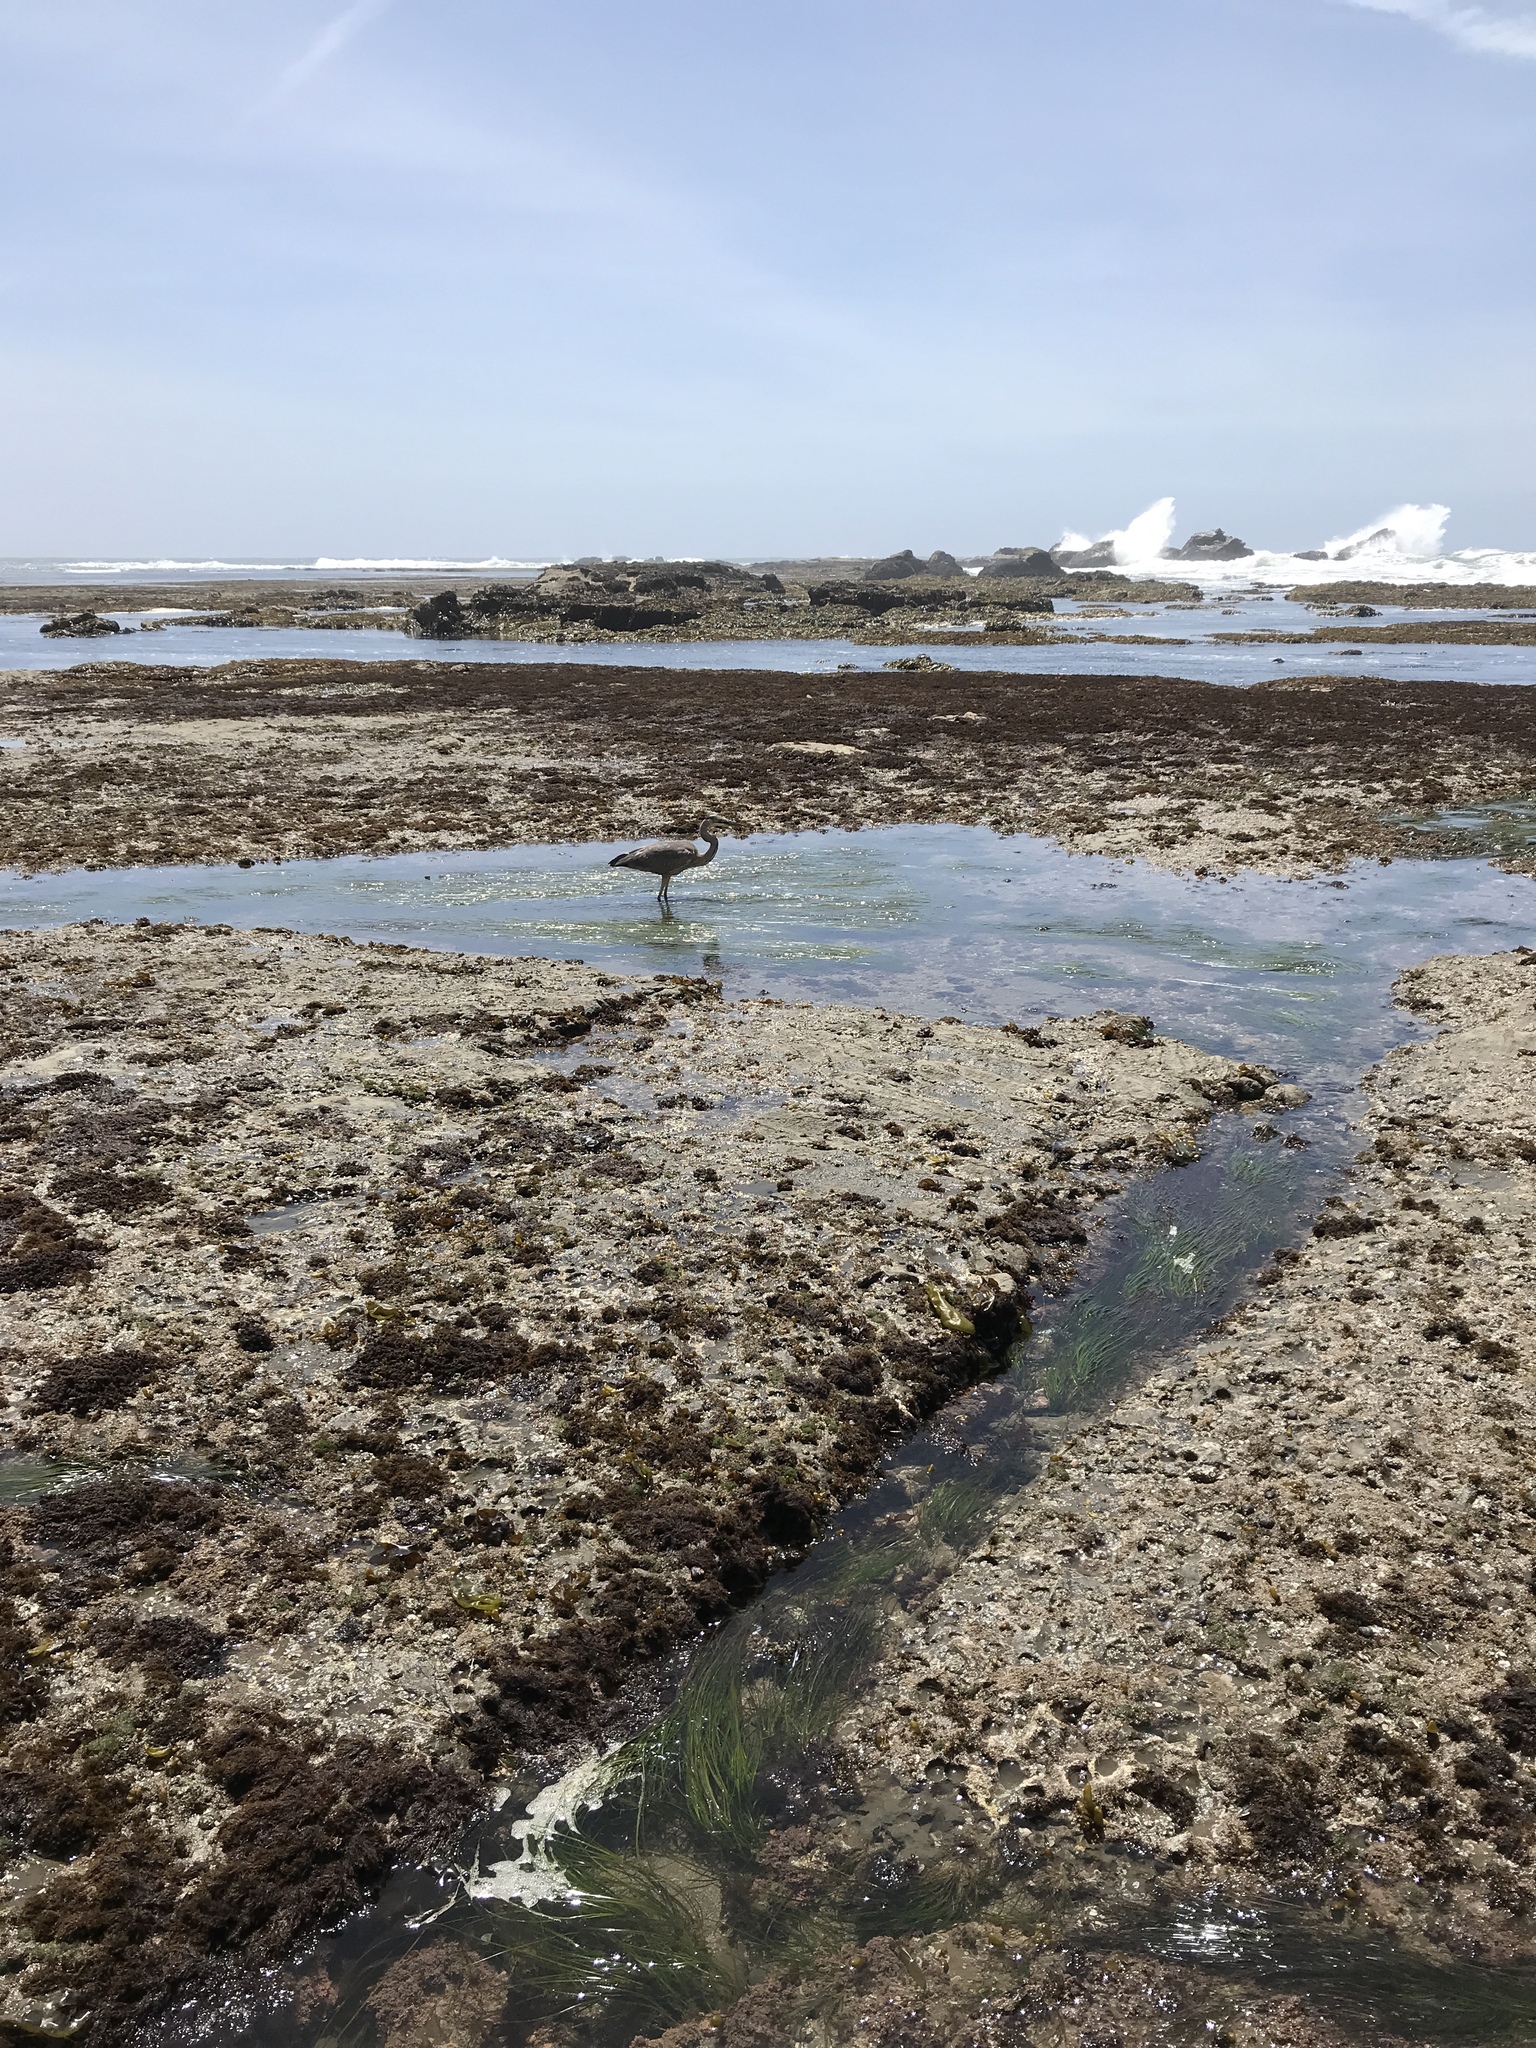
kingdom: Animalia
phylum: Chordata
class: Aves
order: Pelecaniformes
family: Ardeidae
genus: Ardea
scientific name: Ardea herodias
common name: Great blue heron
